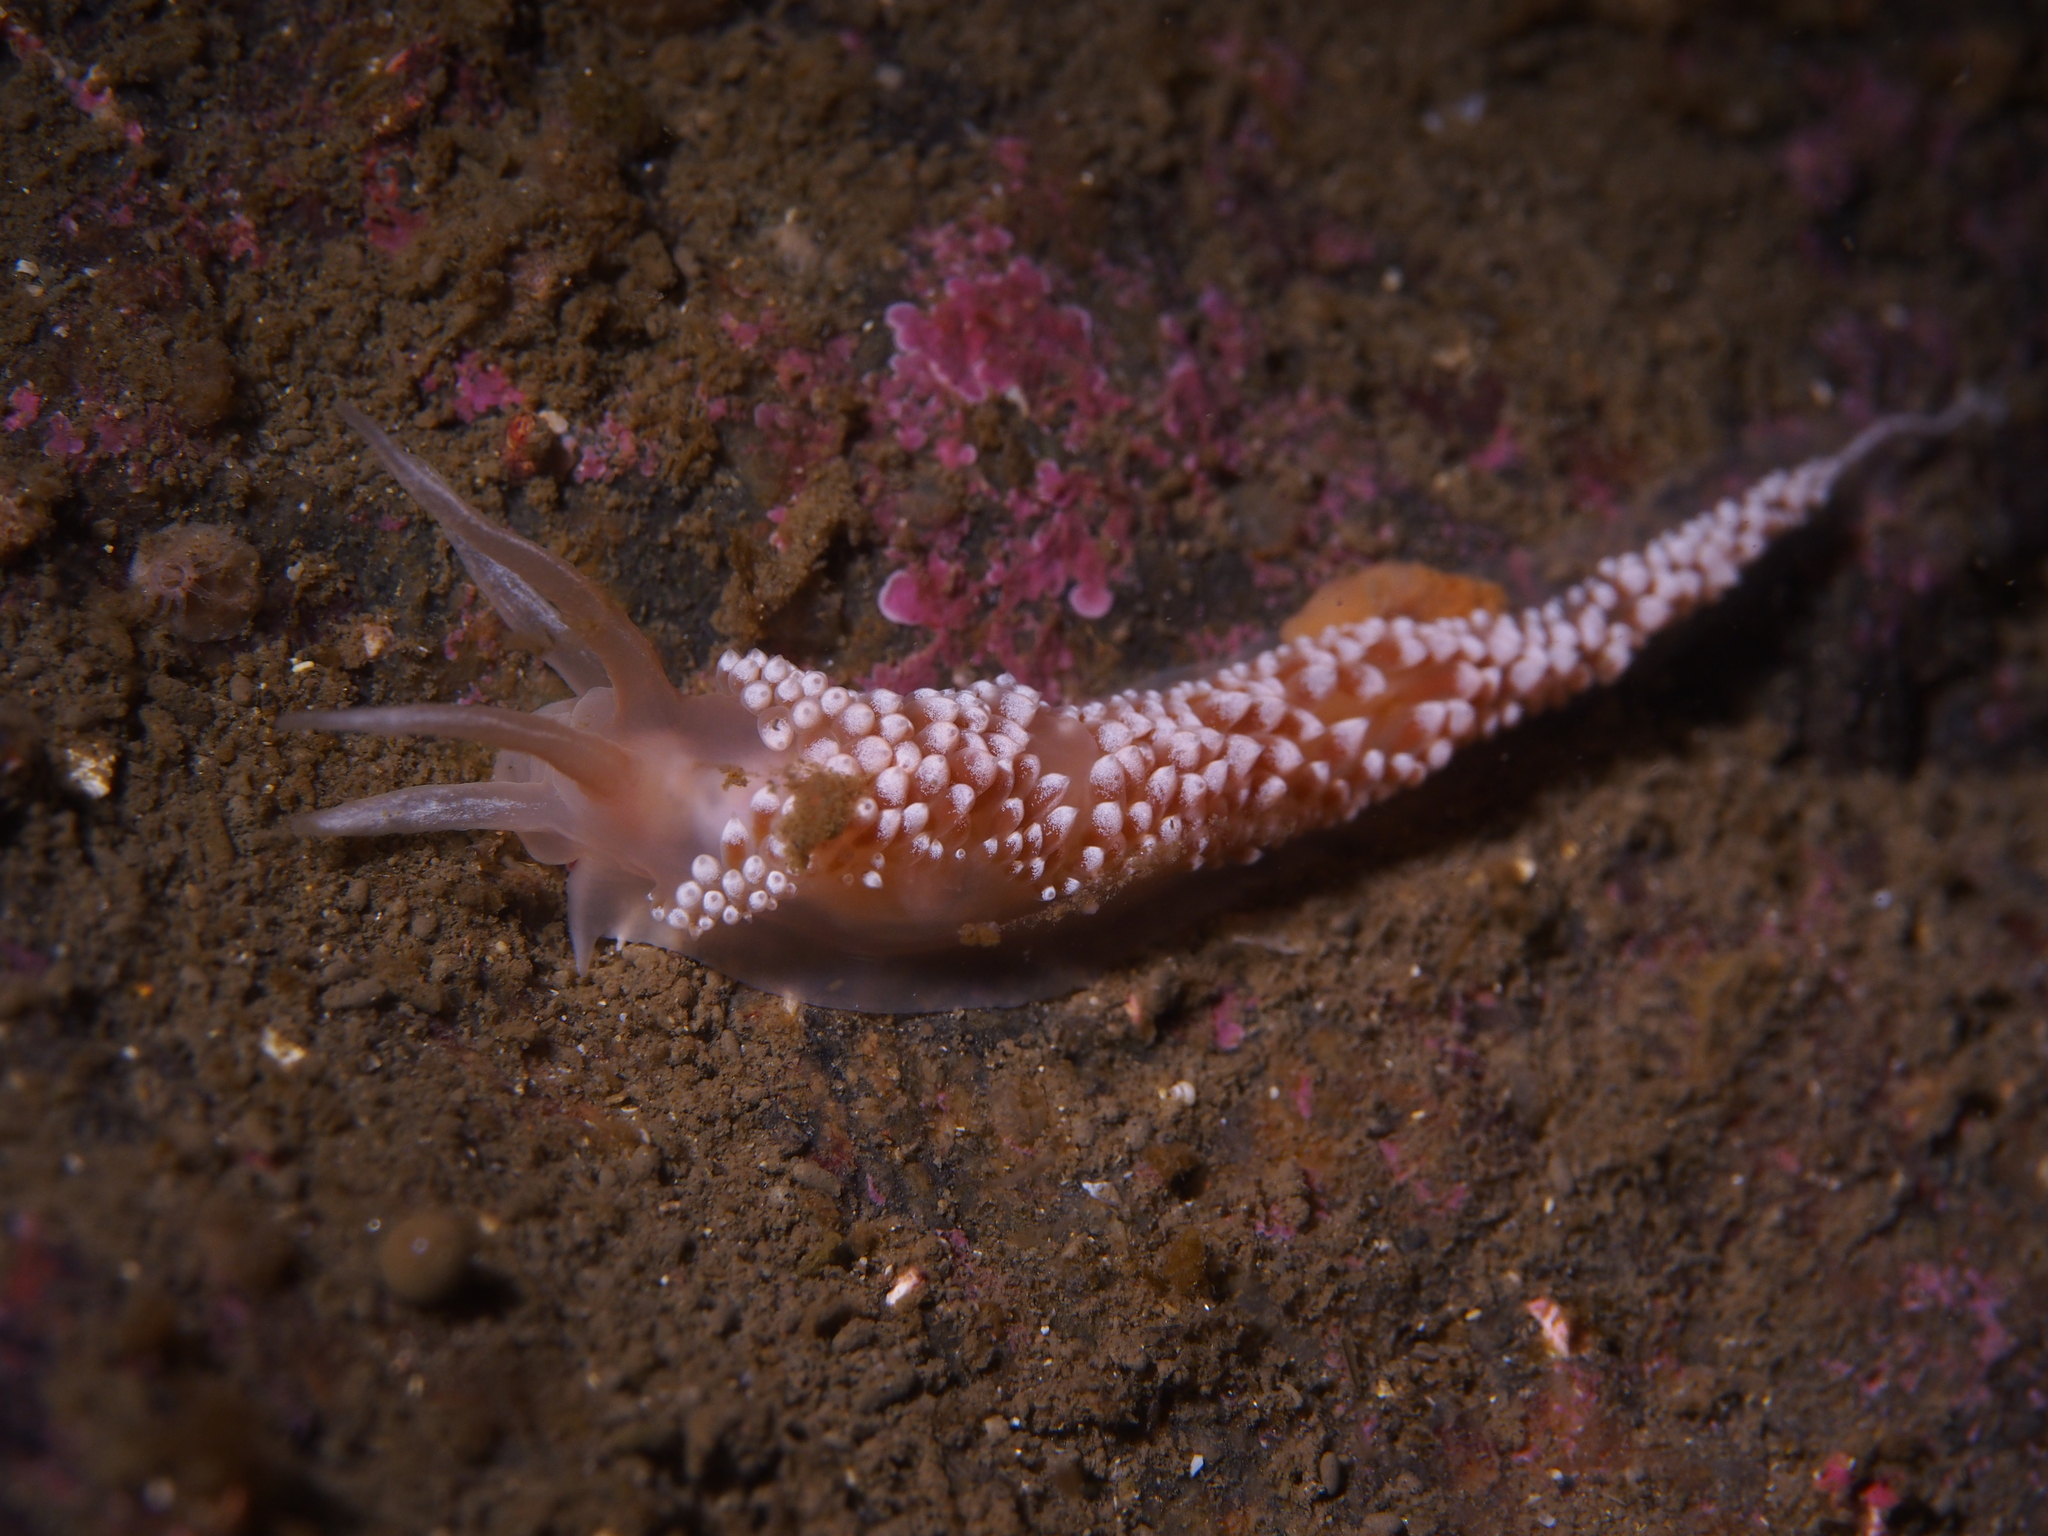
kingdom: Animalia
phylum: Mollusca
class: Gastropoda
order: Nudibranchia
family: Coryphellidae
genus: Coryphella
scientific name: Coryphella verrucosa
